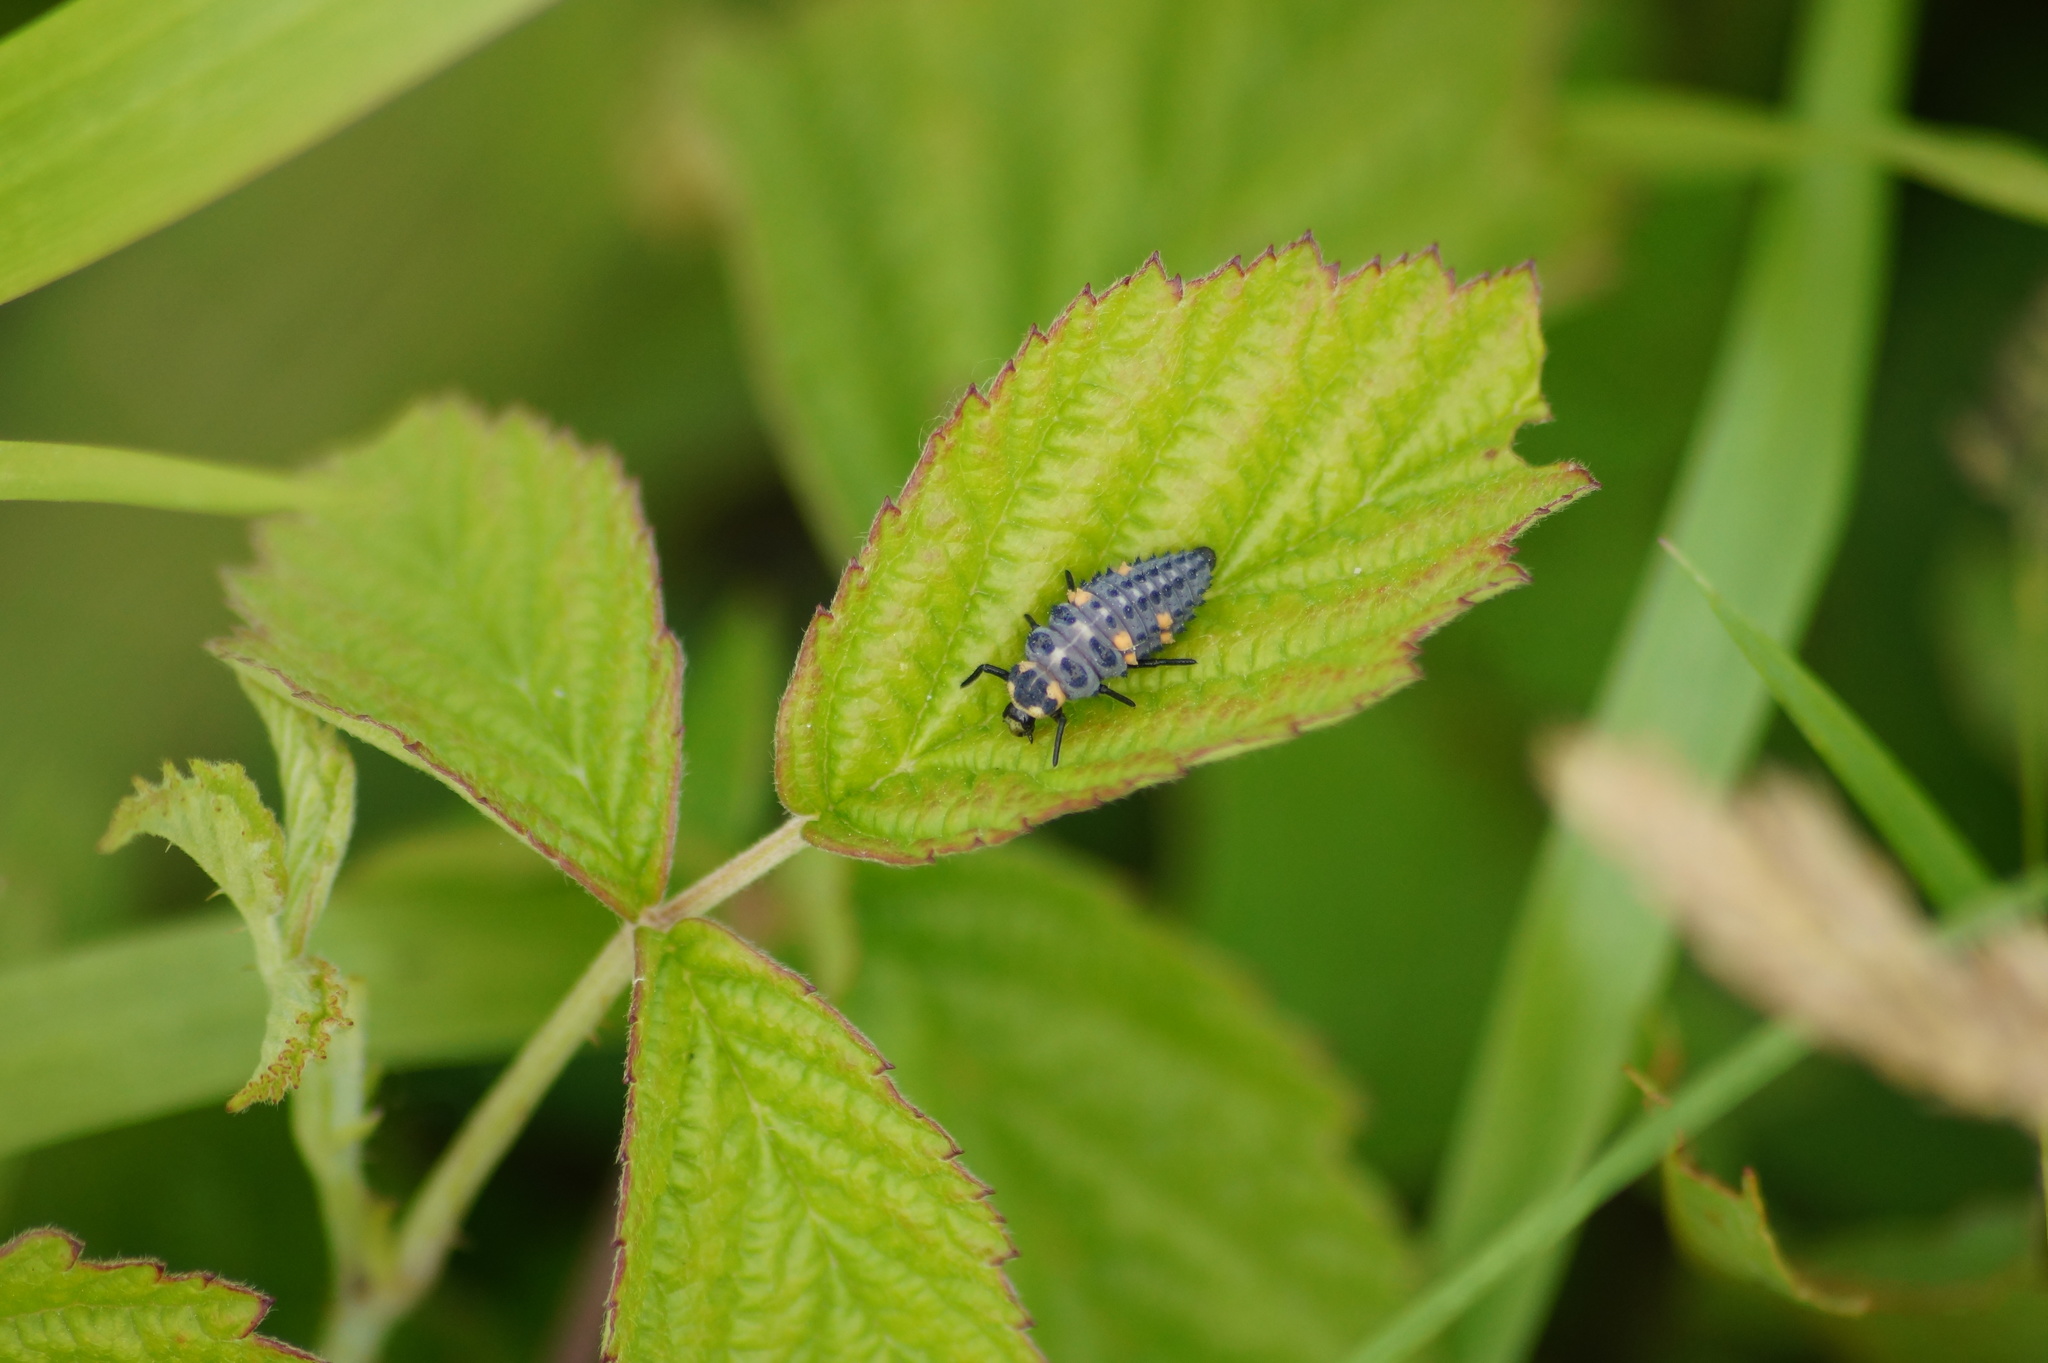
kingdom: Animalia
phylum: Arthropoda
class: Insecta
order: Coleoptera
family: Coccinellidae
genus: Coccinella
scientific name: Coccinella septempunctata
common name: Sevenspotted lady beetle
